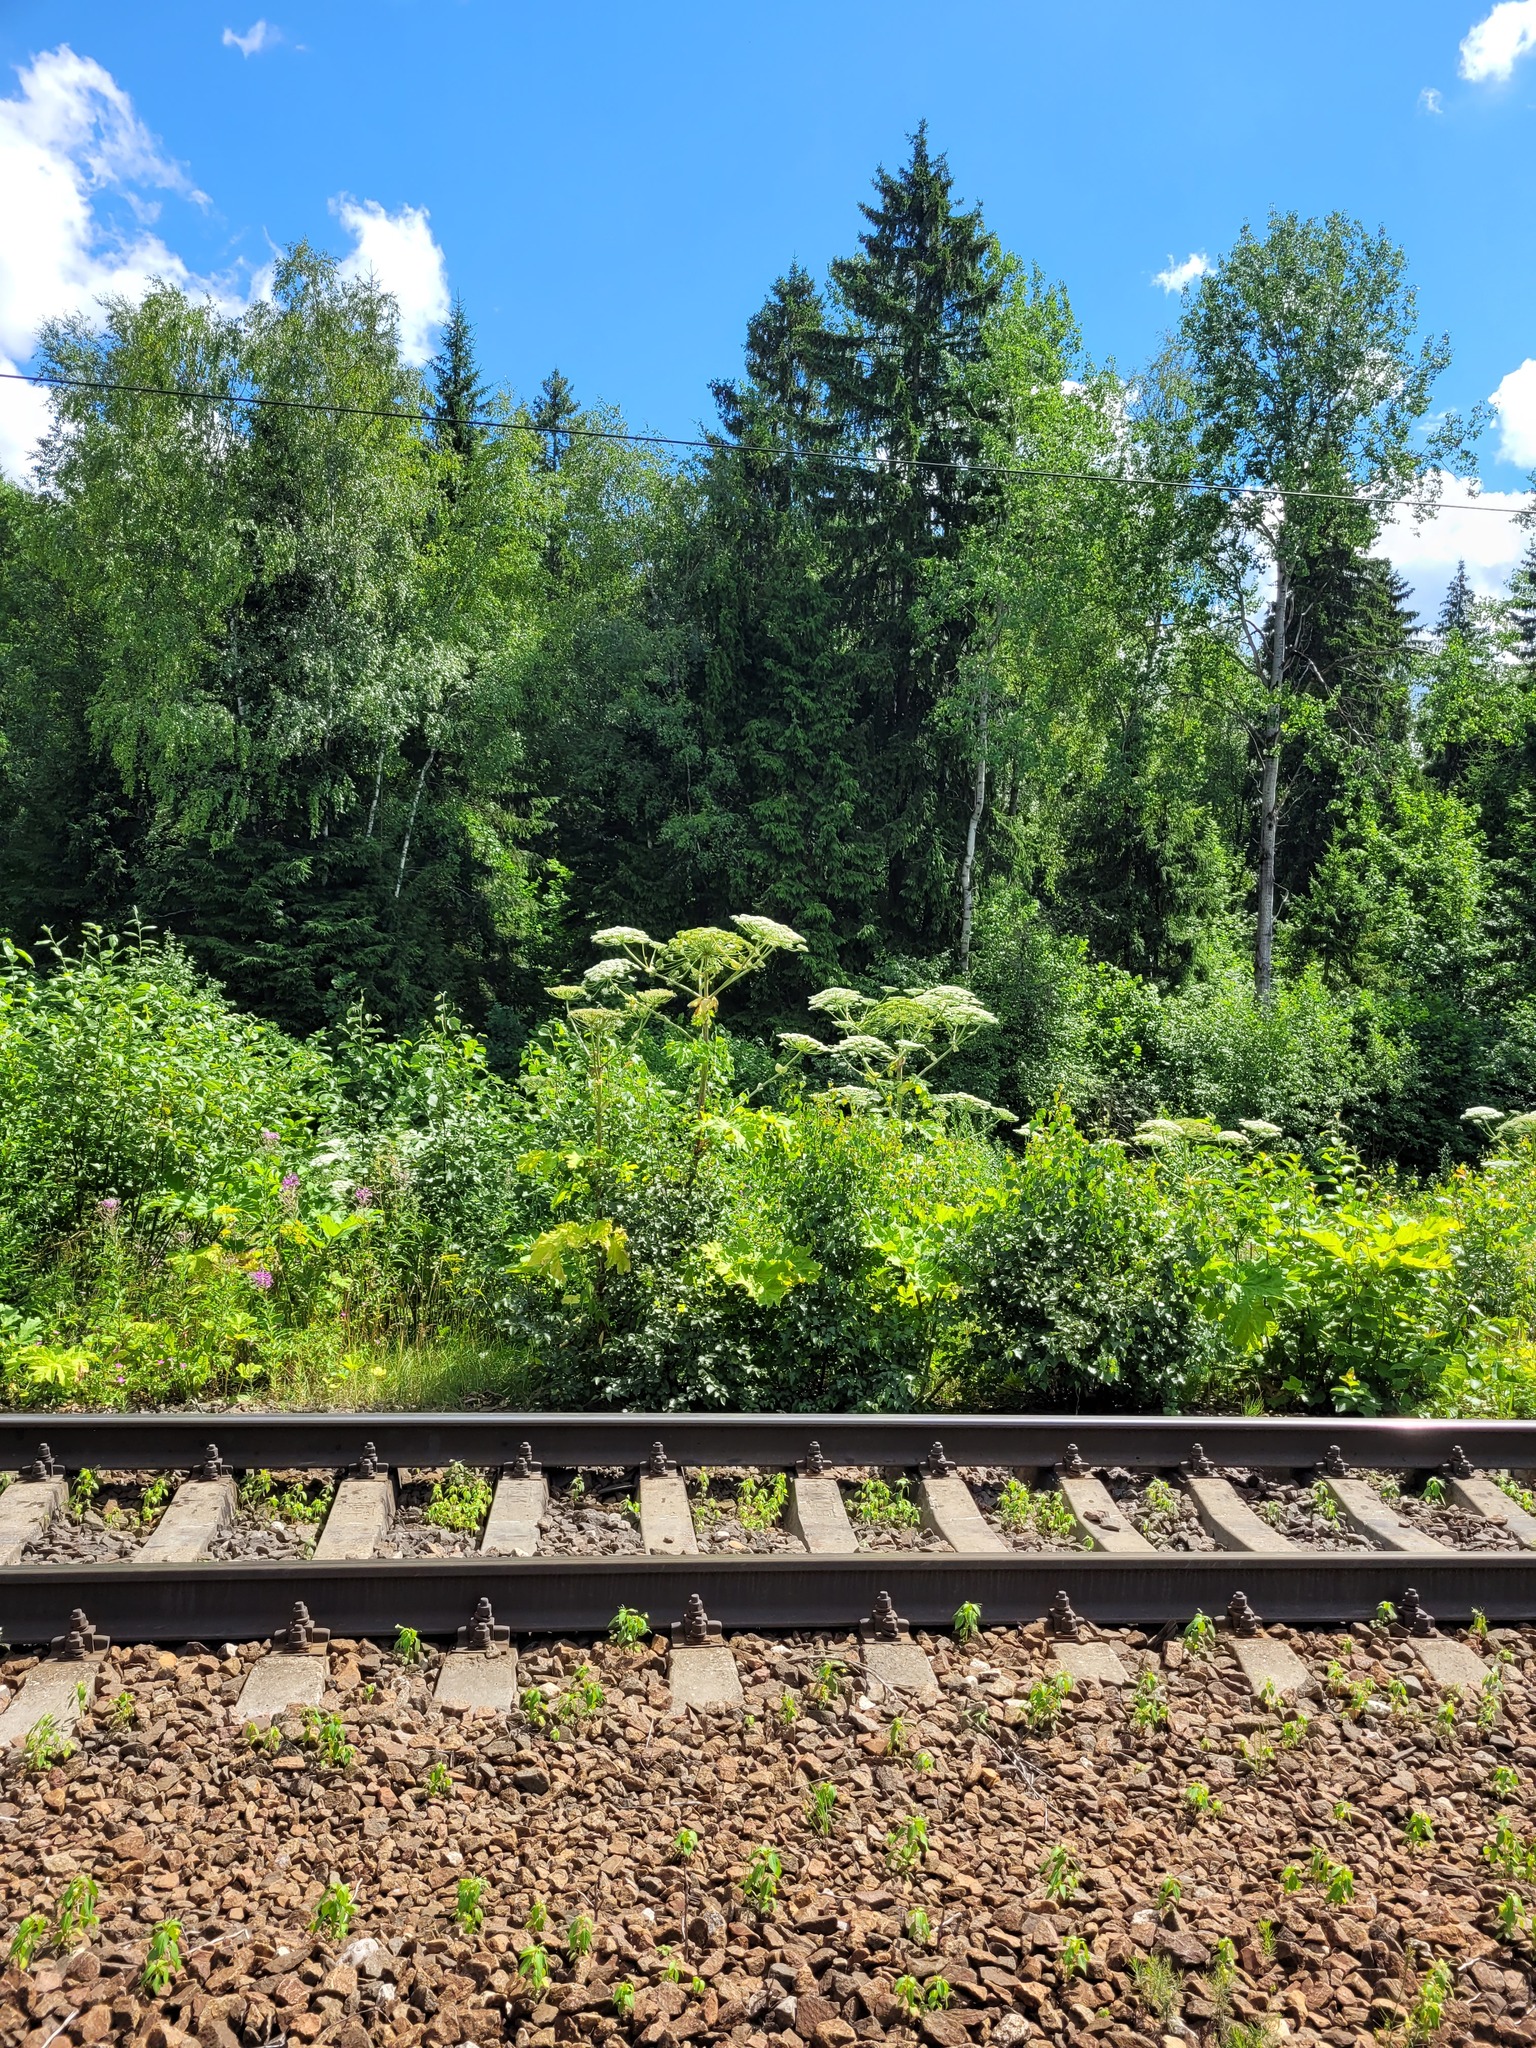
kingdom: Plantae
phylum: Tracheophyta
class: Magnoliopsida
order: Apiales
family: Apiaceae
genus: Heracleum
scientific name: Heracleum sosnowskyi
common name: Sosnowsky's hogweed
